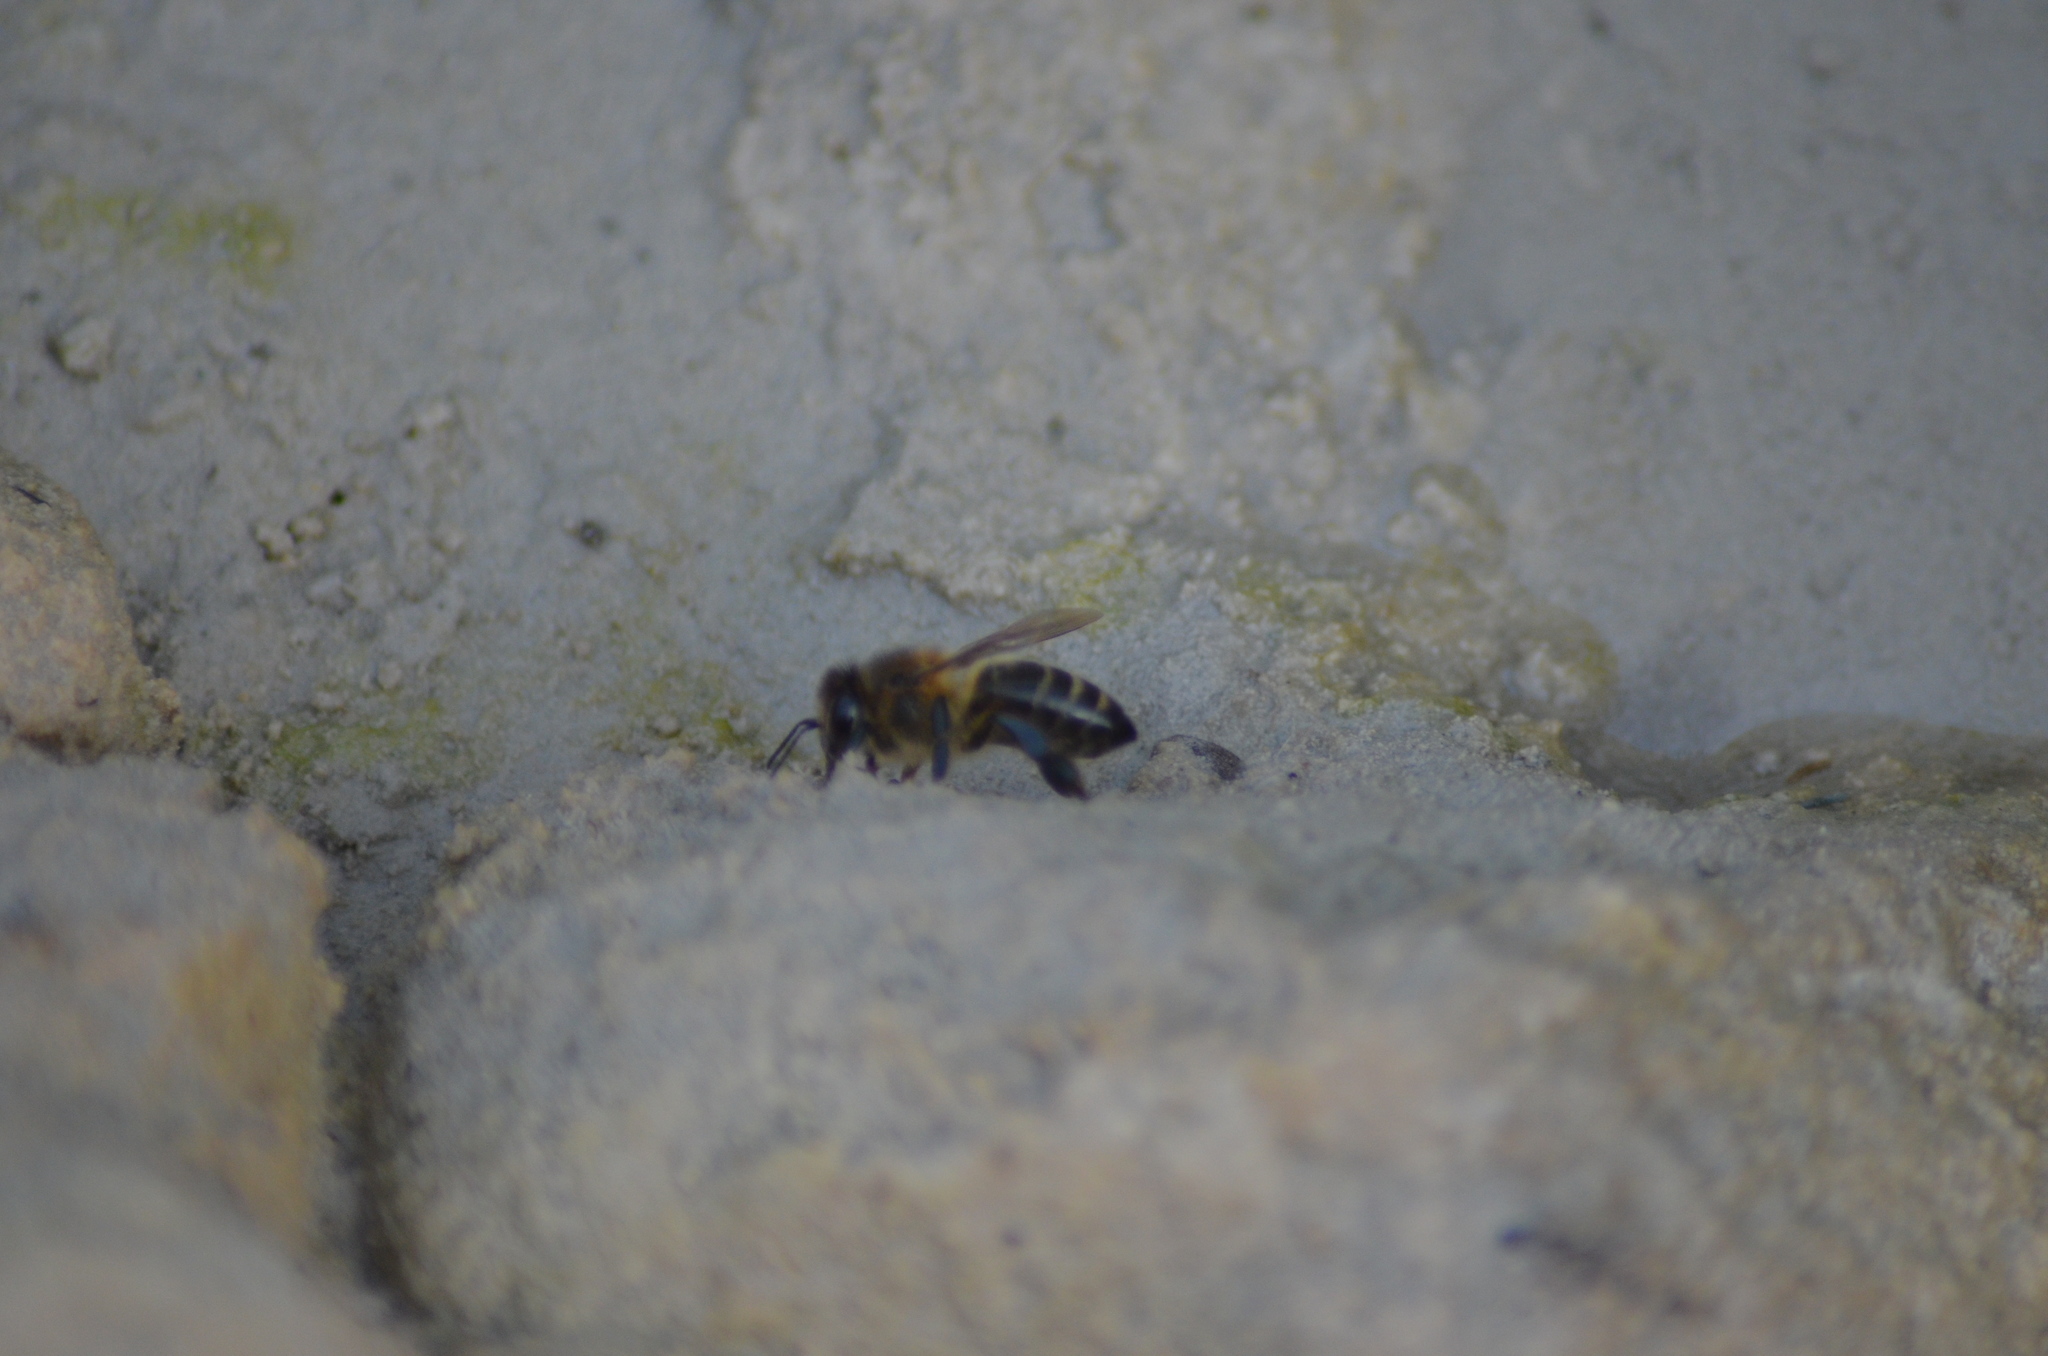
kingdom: Animalia
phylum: Arthropoda
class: Insecta
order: Hymenoptera
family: Apidae
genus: Apis
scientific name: Apis mellifera
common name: Honey bee
